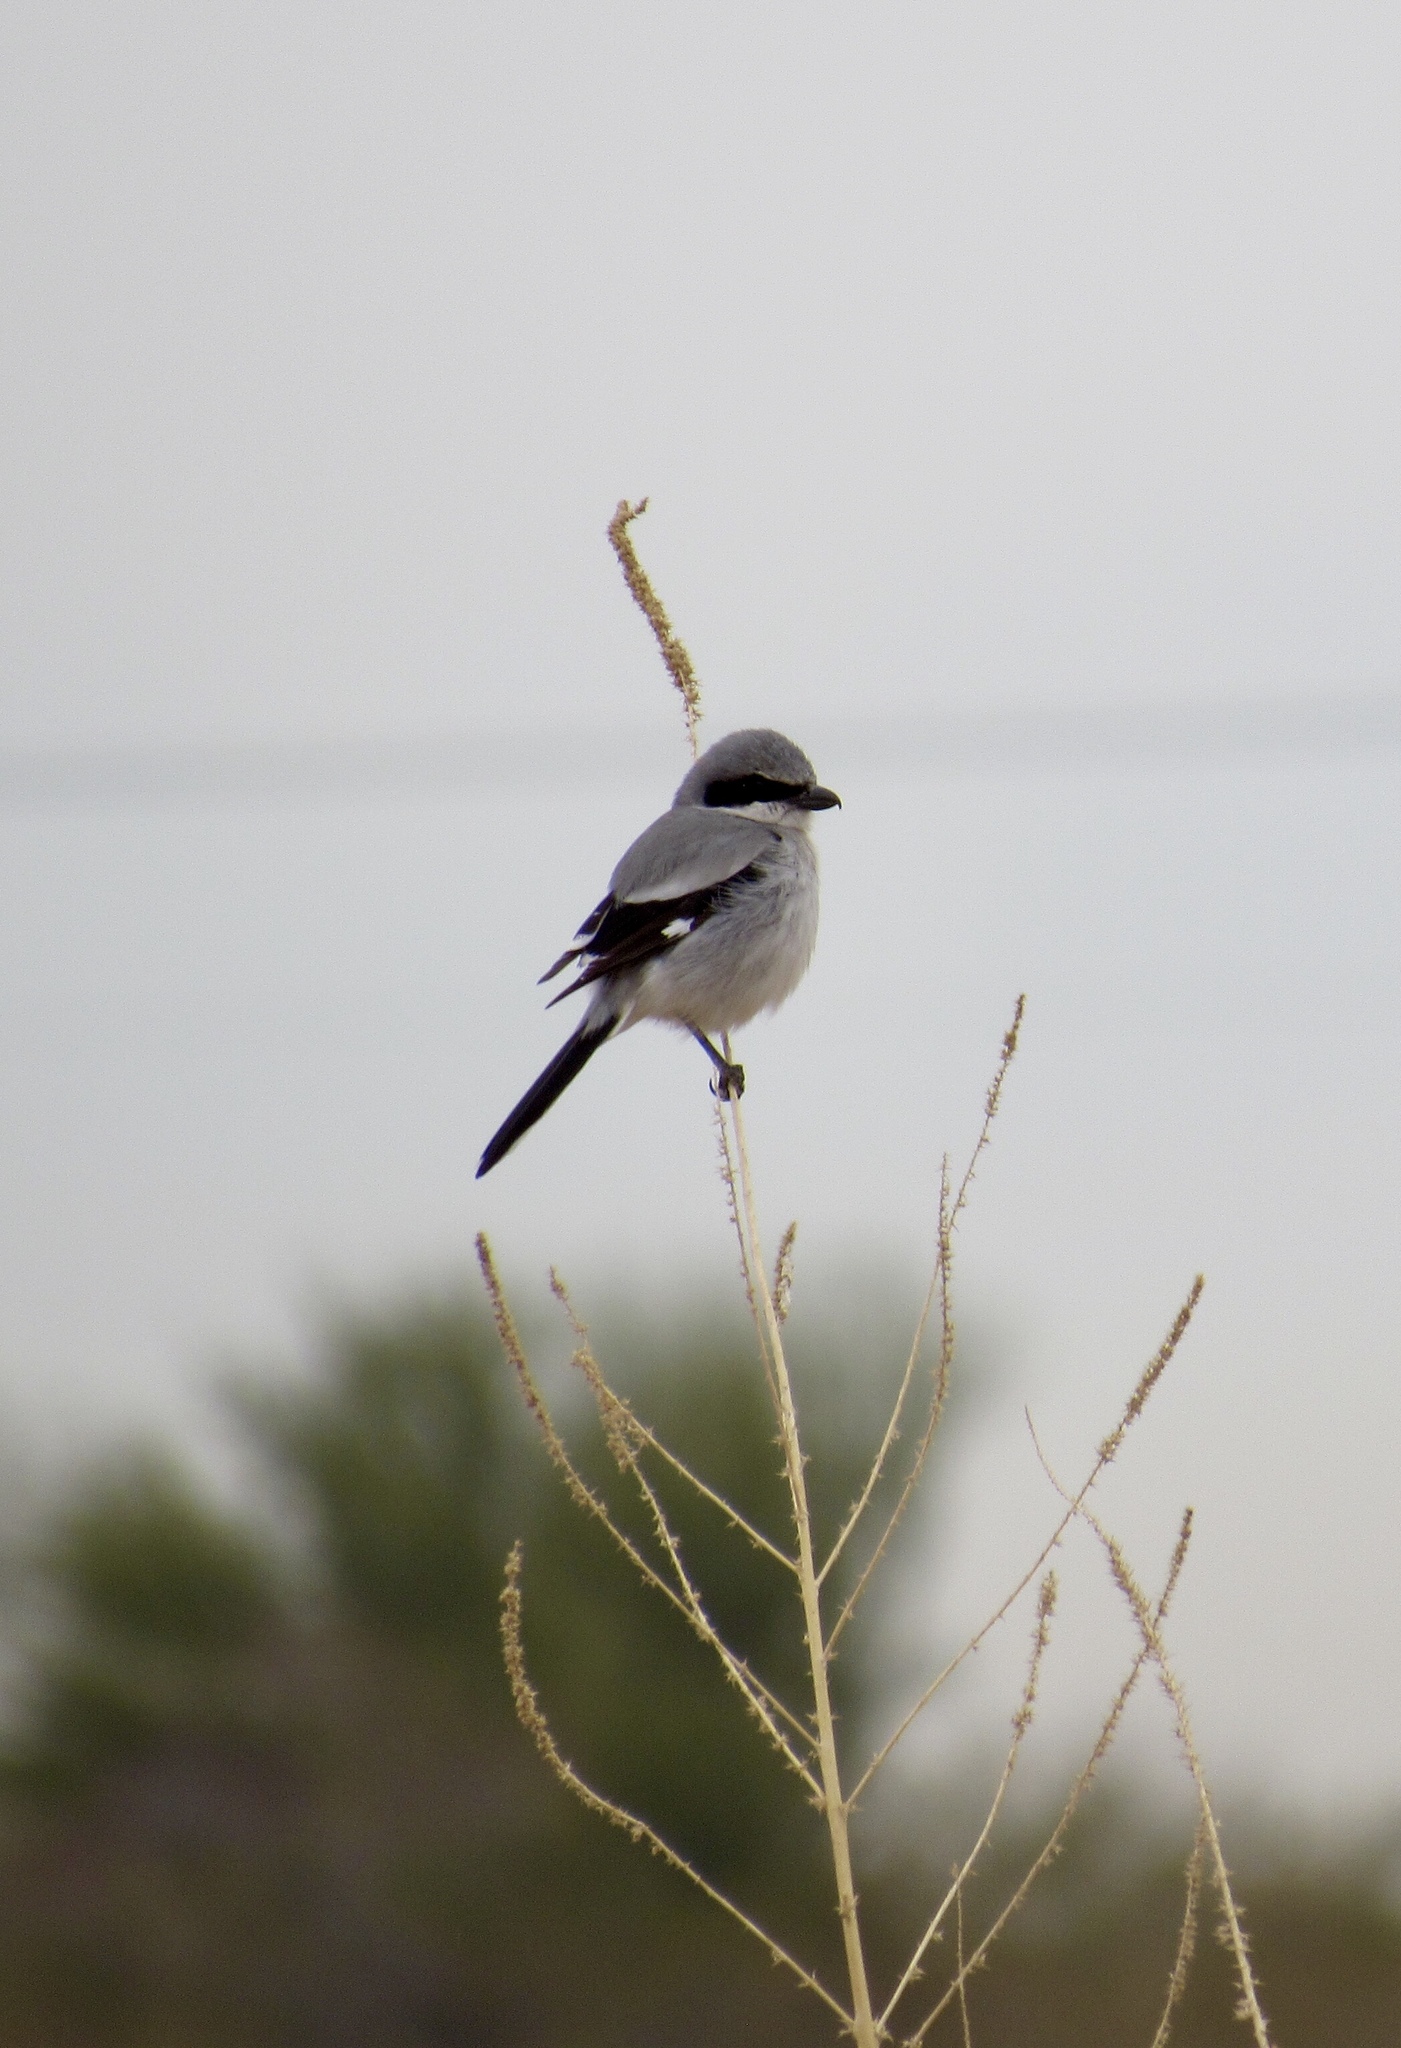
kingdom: Animalia
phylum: Chordata
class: Aves
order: Passeriformes
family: Laniidae
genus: Lanius
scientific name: Lanius ludovicianus
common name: Loggerhead shrike
